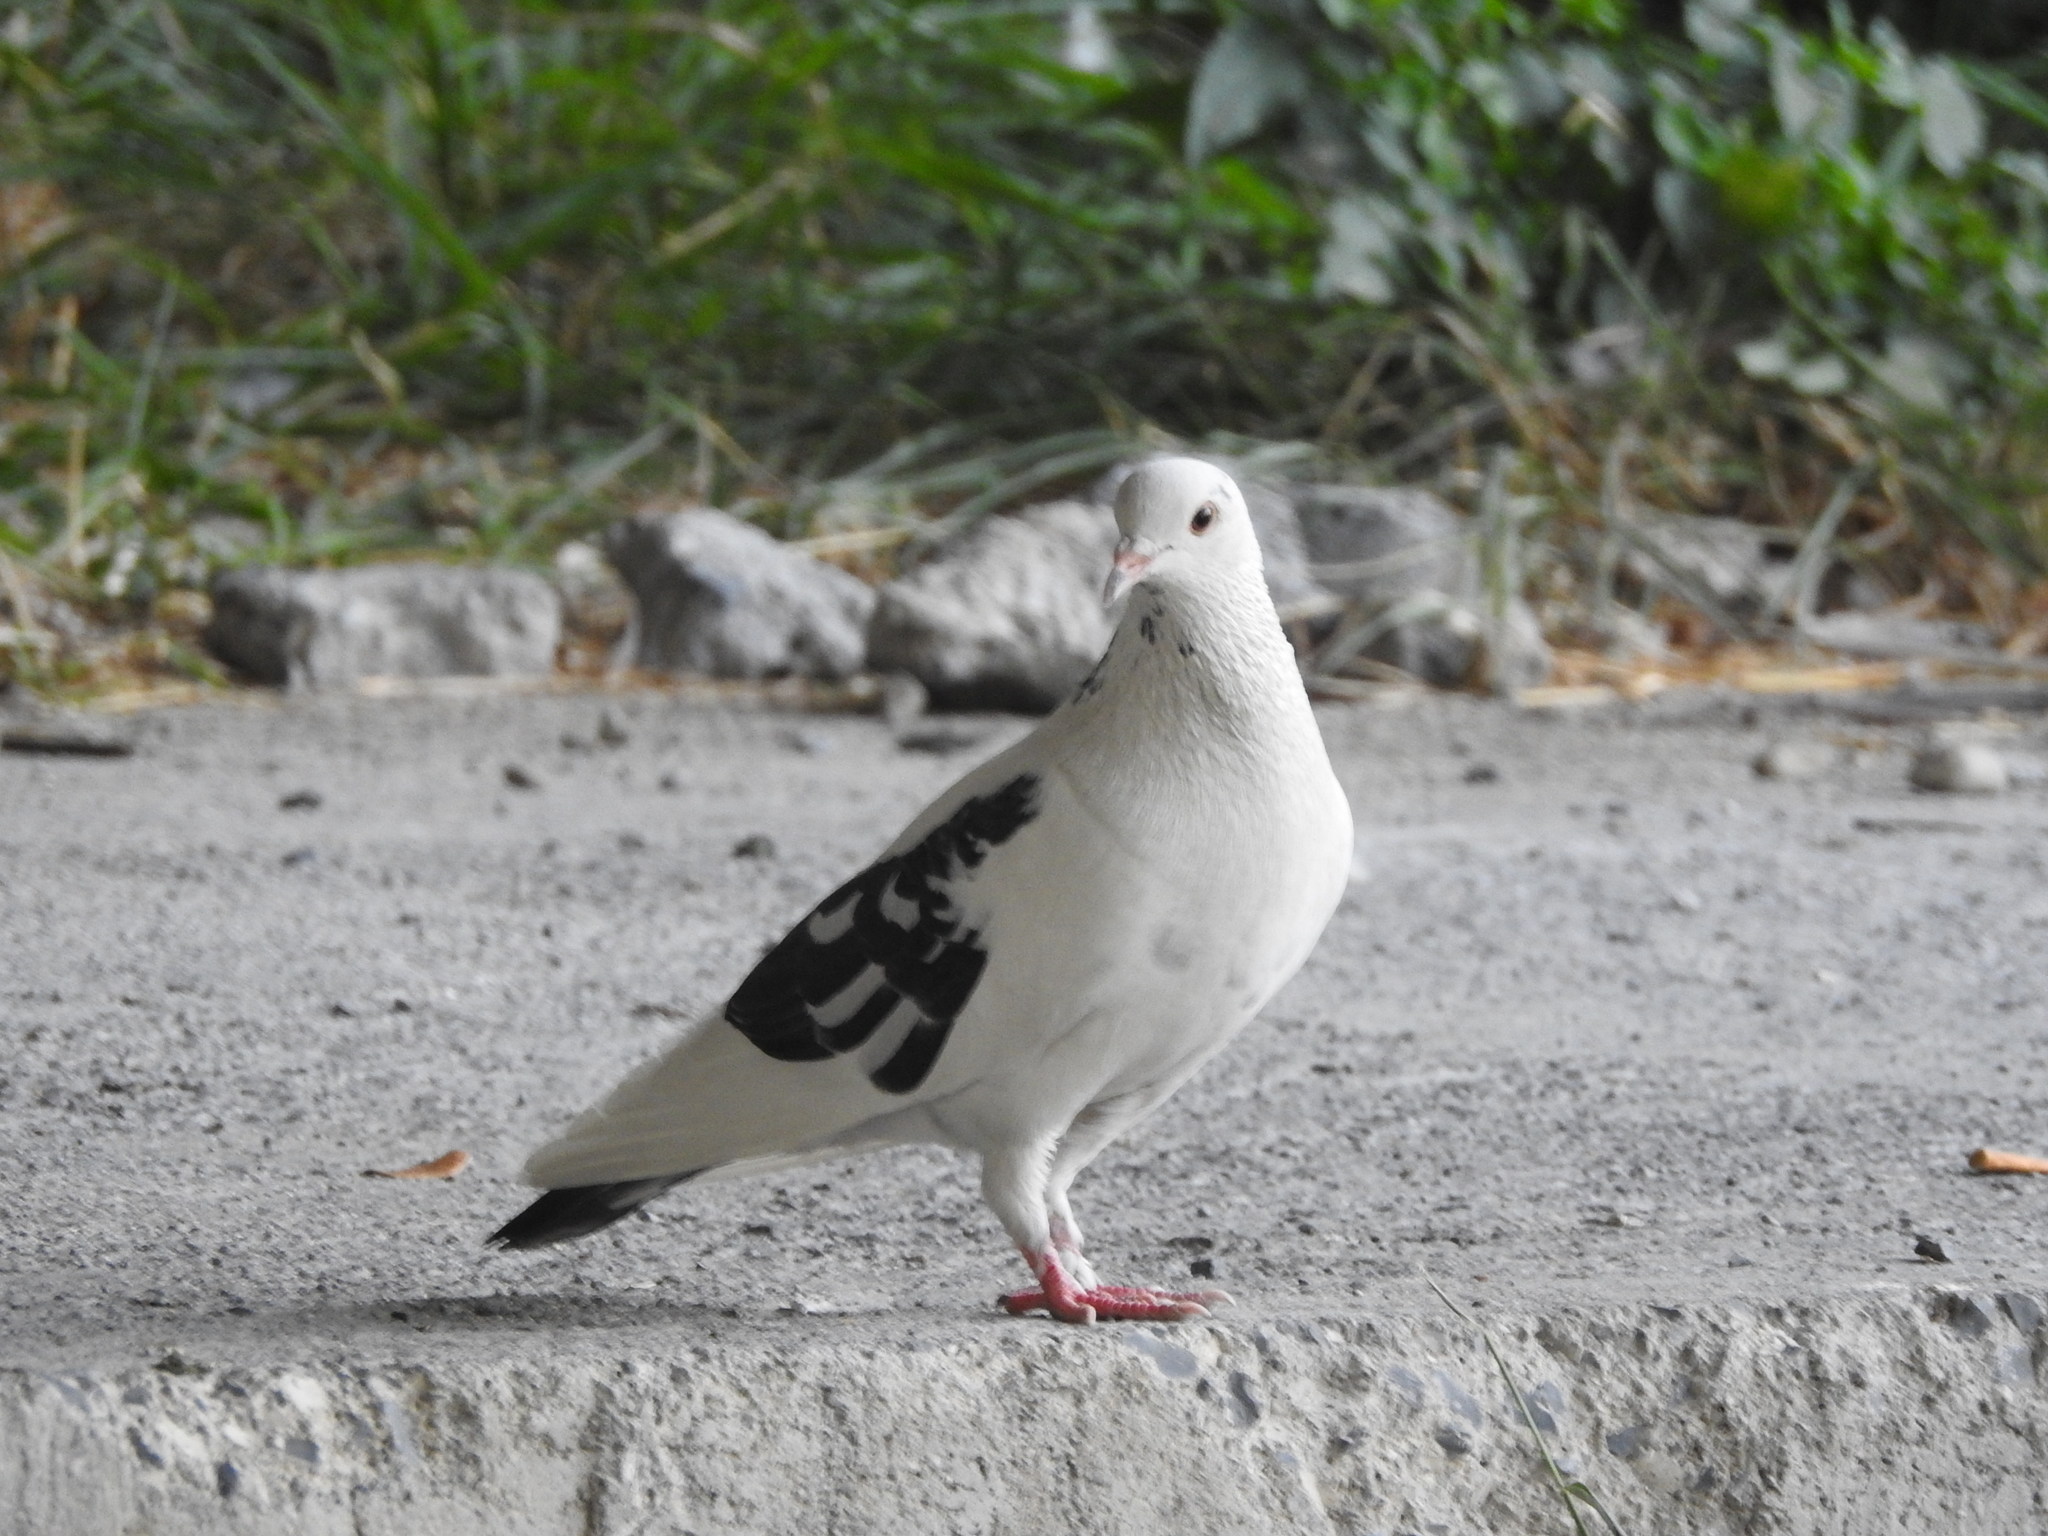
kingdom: Animalia
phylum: Chordata
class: Aves
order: Columbiformes
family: Columbidae
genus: Columba
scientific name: Columba livia
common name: Rock pigeon
